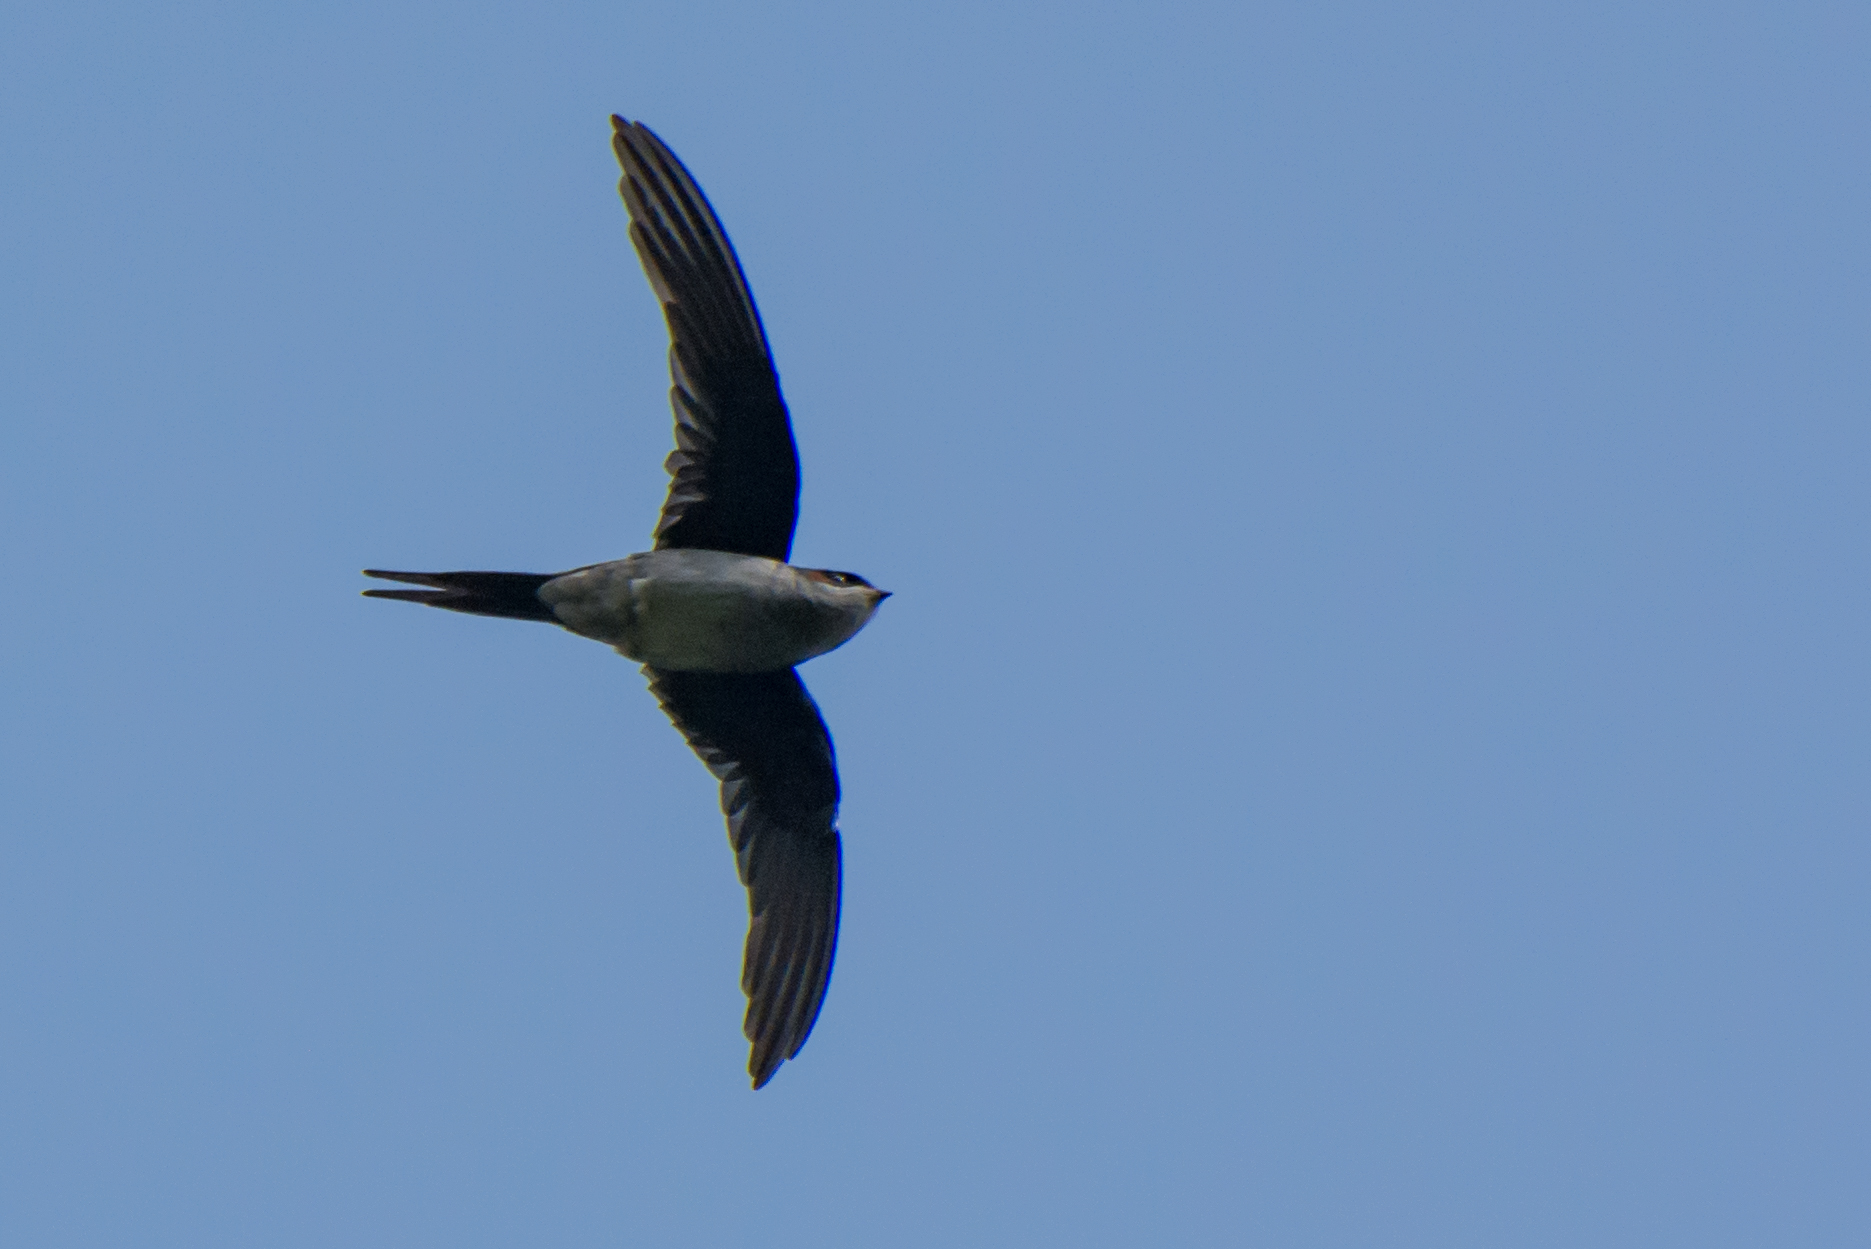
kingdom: Animalia
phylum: Chordata
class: Aves
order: Apodiformes
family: Hemiprocnidae
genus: Hemiprocne
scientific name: Hemiprocne longipennis
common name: Grey-rumped treeswift
